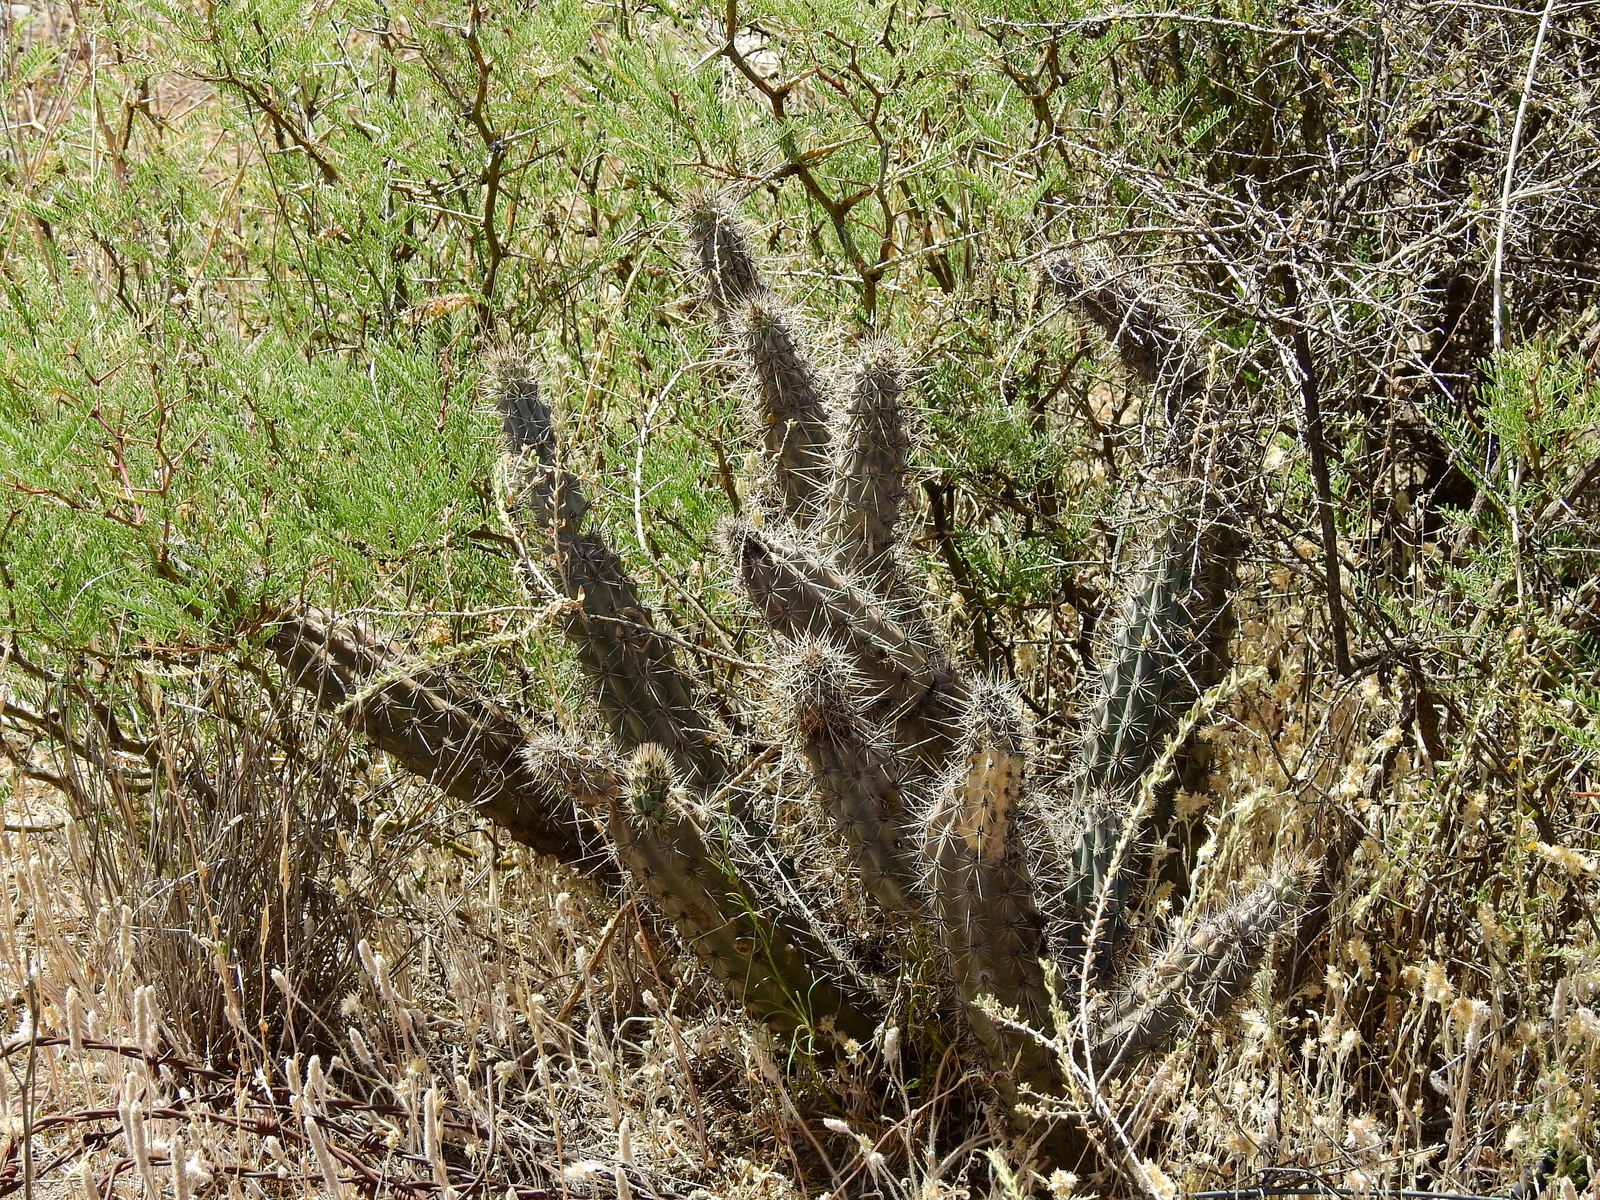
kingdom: Plantae
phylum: Tracheophyta
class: Magnoliopsida
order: Caryophyllales
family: Cactaceae
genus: Cereus
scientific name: Cereus aethiops
